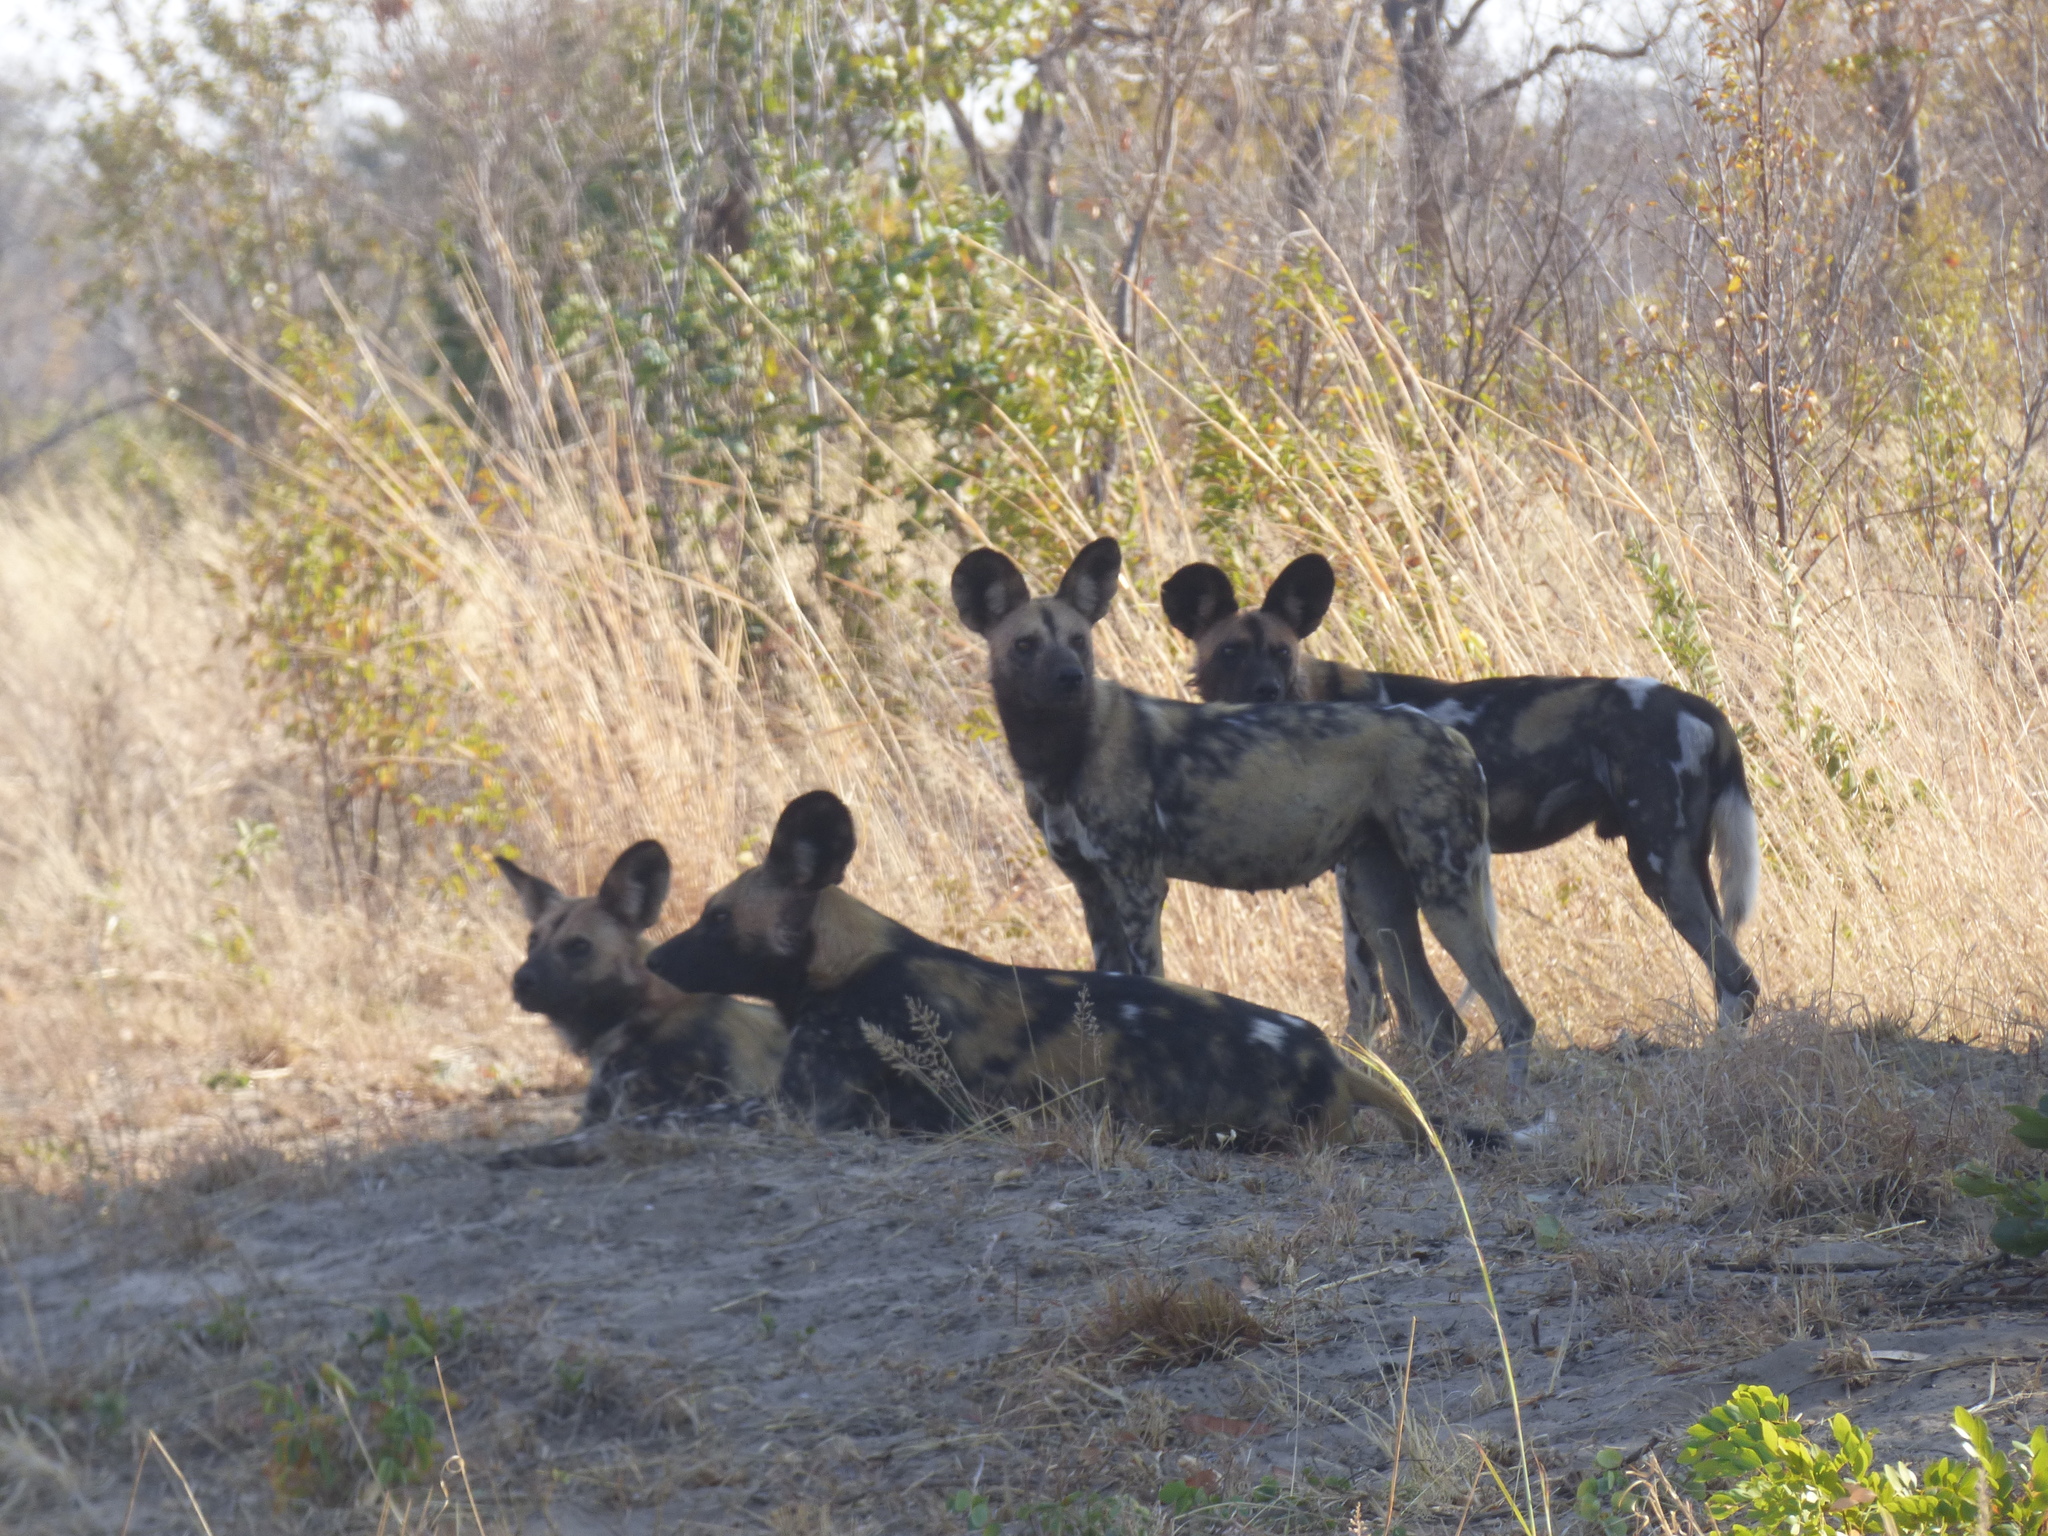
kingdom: Animalia
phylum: Chordata
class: Mammalia
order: Carnivora
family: Canidae
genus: Lycaon
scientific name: Lycaon pictus
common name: African wild dog
